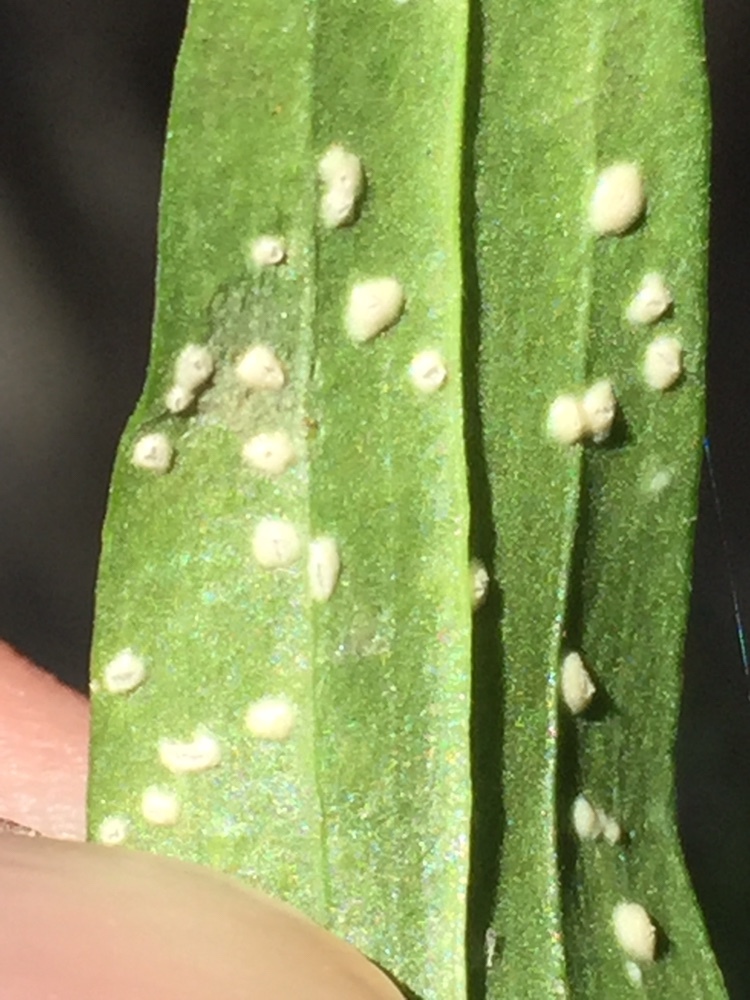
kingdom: Chromista
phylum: Oomycota
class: Peronosporea
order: Albuginales
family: Albuginaceae
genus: Pustula
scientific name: Pustula centaurii
